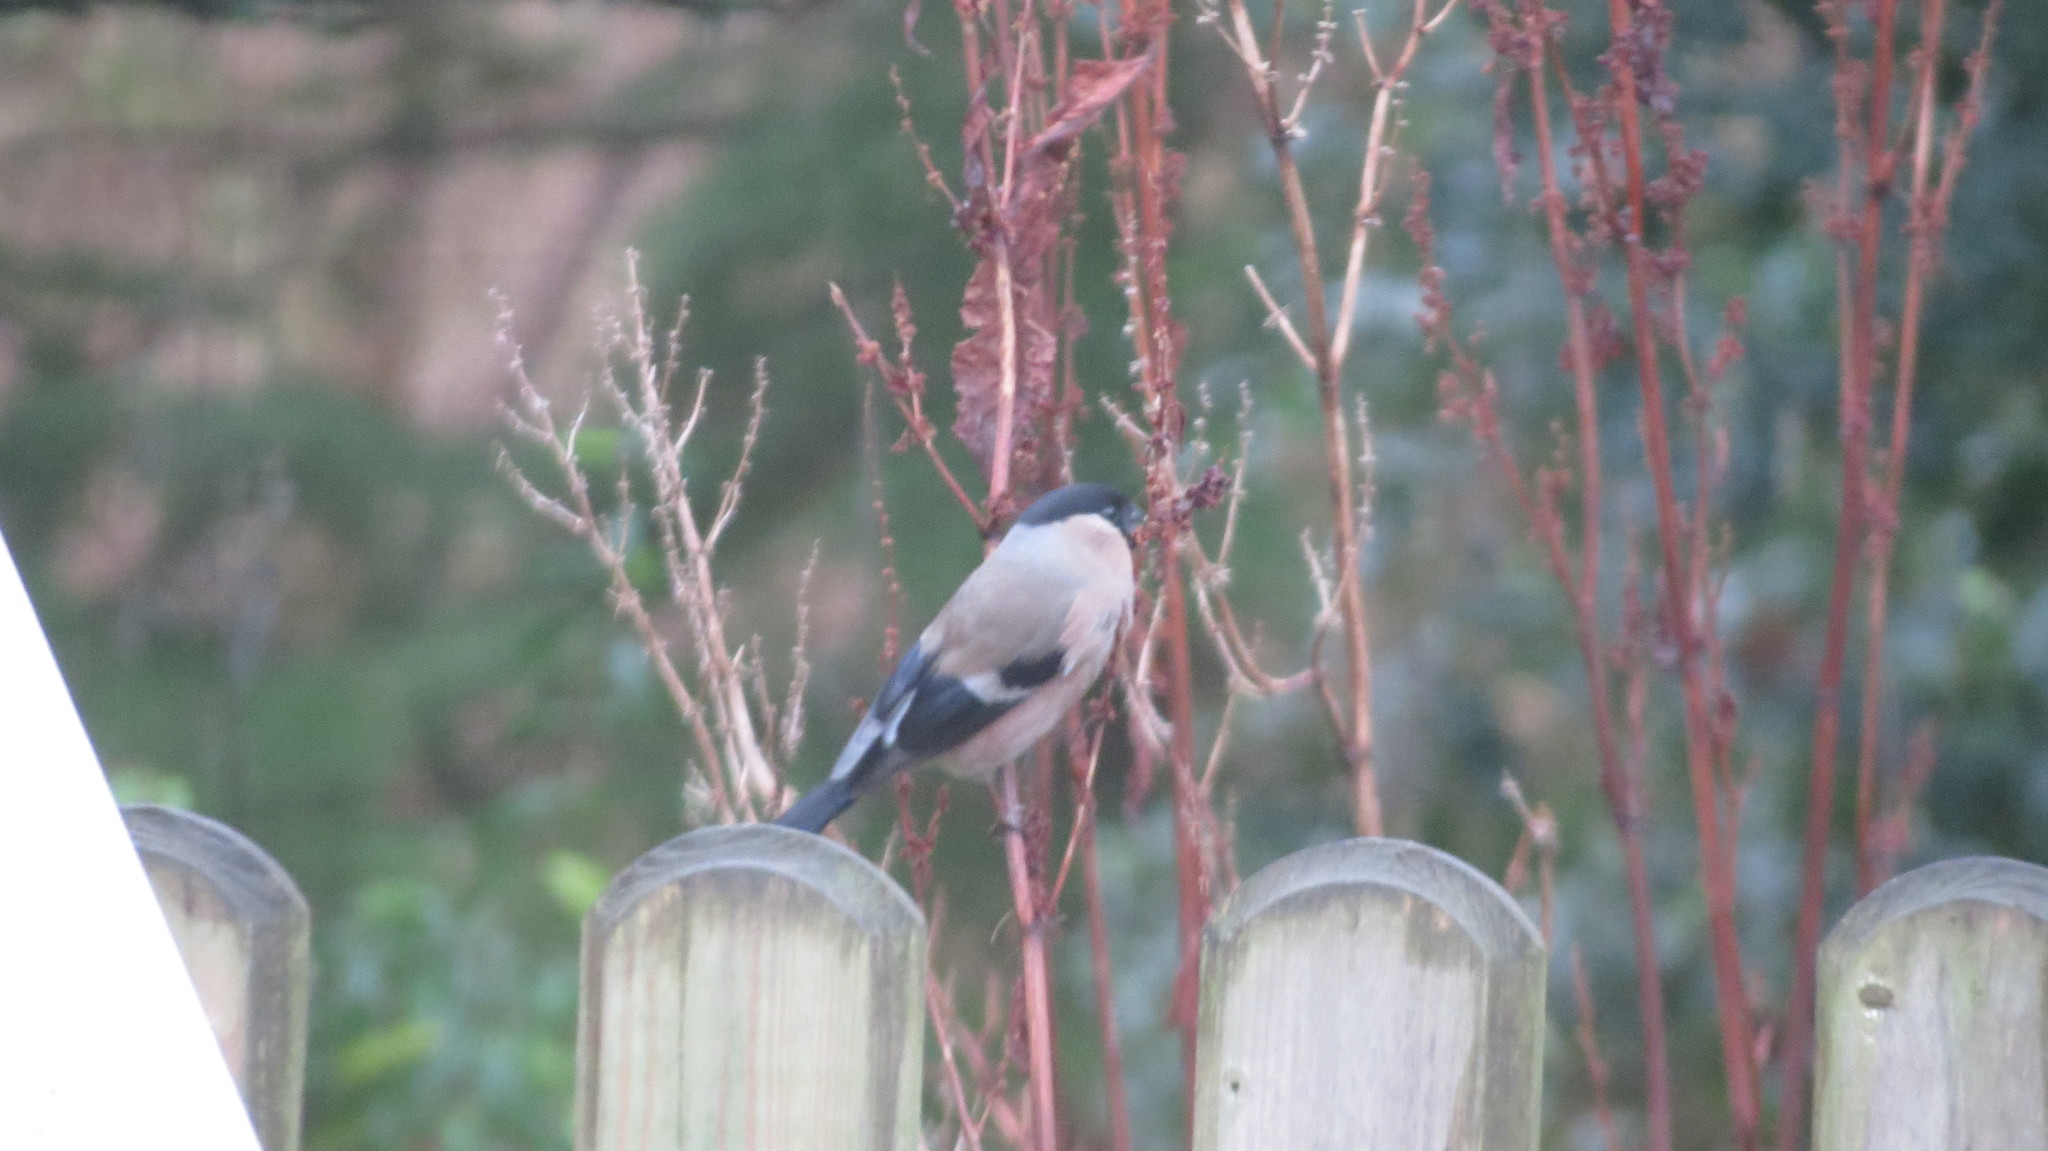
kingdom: Animalia
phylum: Chordata
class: Aves
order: Passeriformes
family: Fringillidae
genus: Pyrrhula
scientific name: Pyrrhula pyrrhula
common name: Eurasian bullfinch
